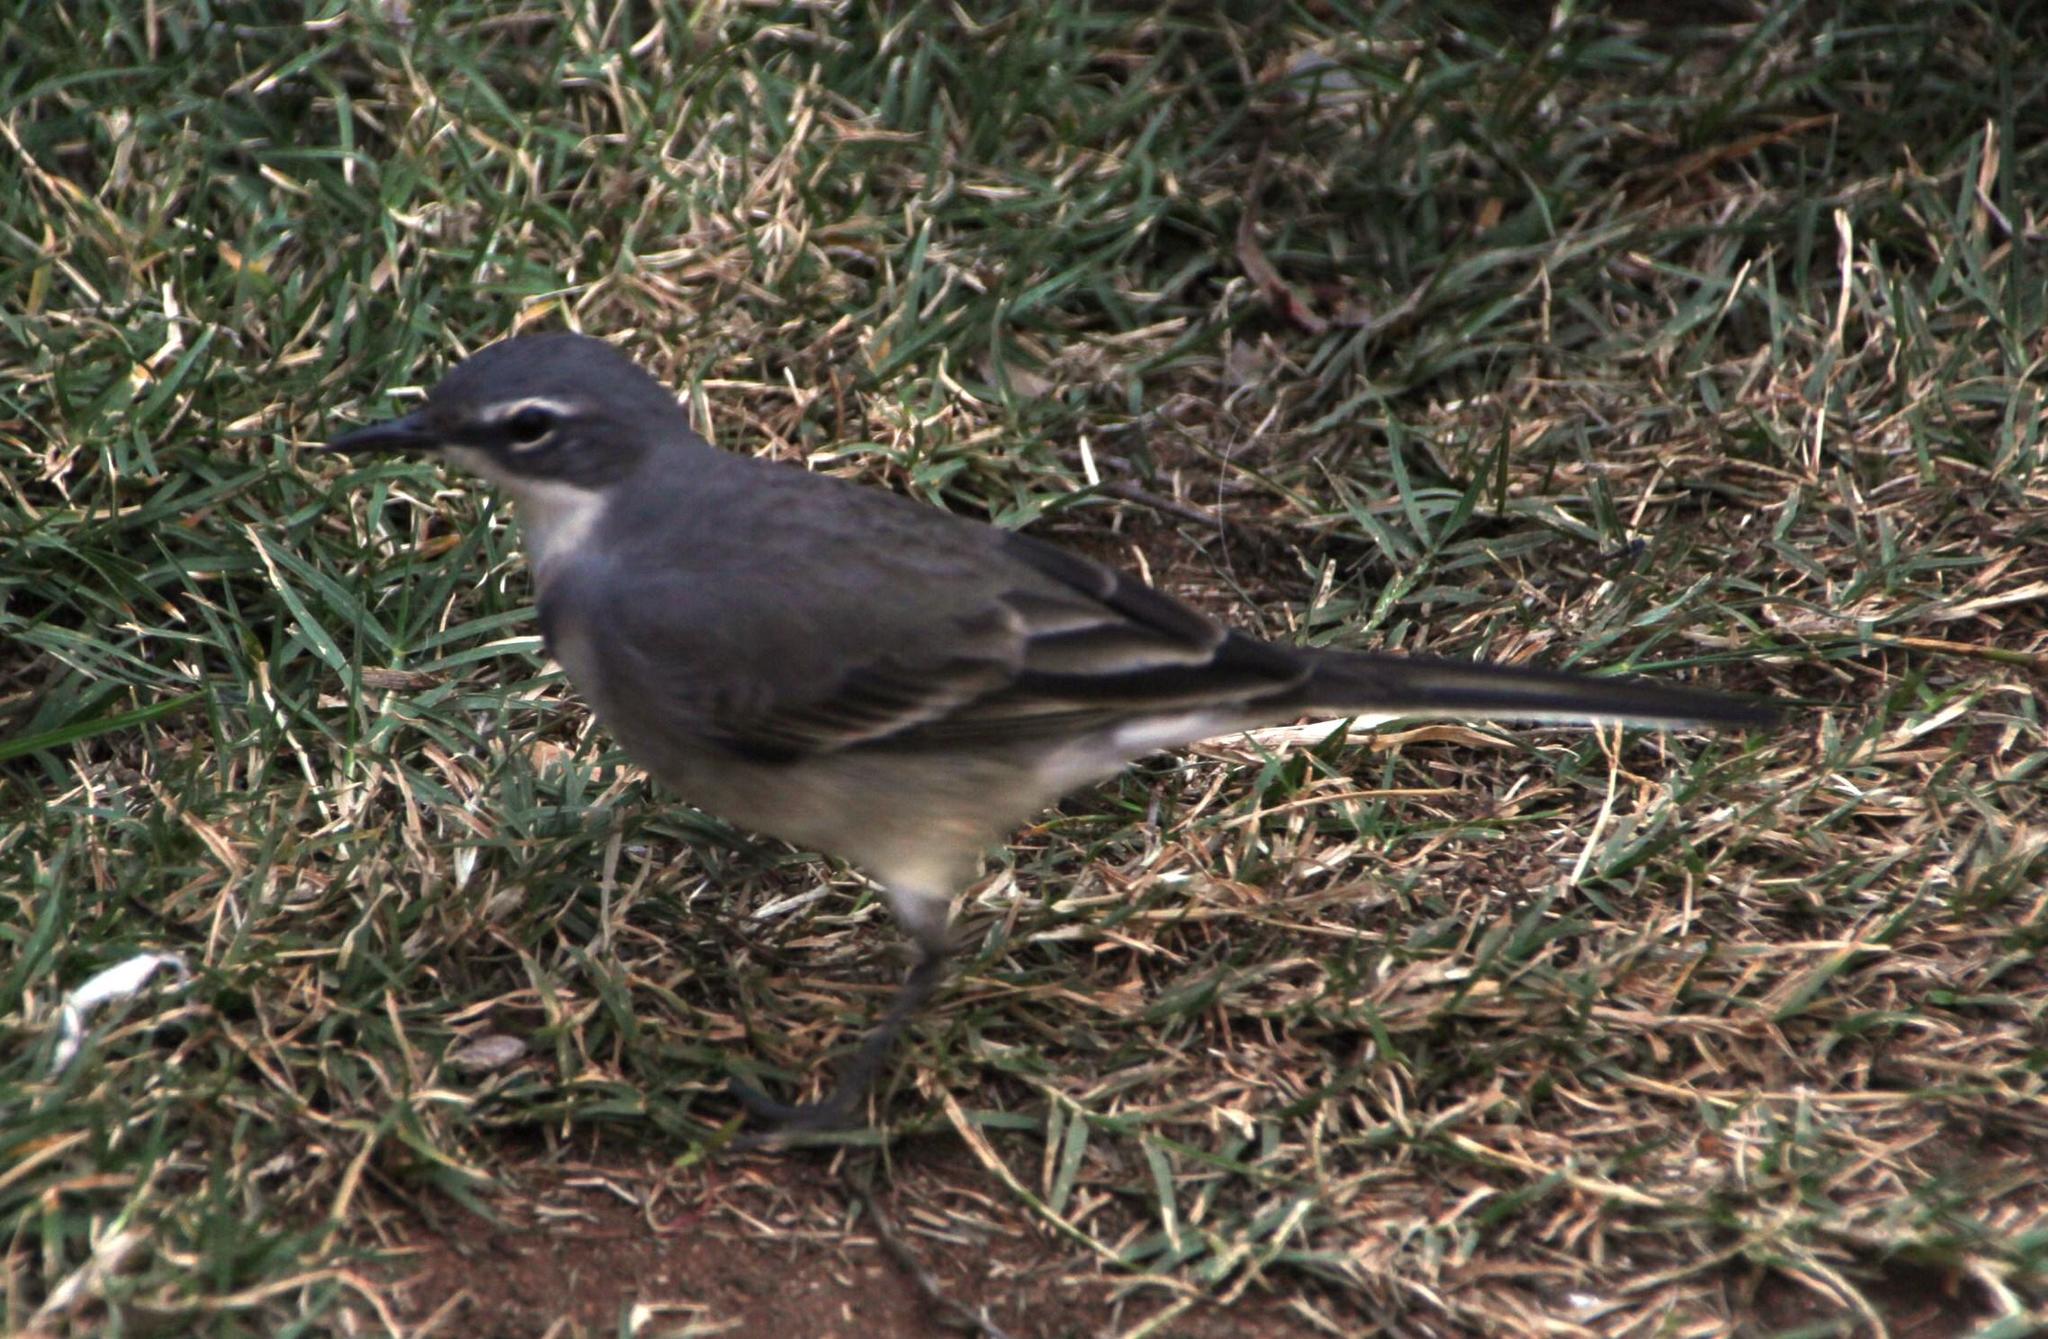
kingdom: Animalia
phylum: Chordata
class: Aves
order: Passeriformes
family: Motacillidae
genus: Motacilla
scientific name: Motacilla capensis
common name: Cape wagtail
